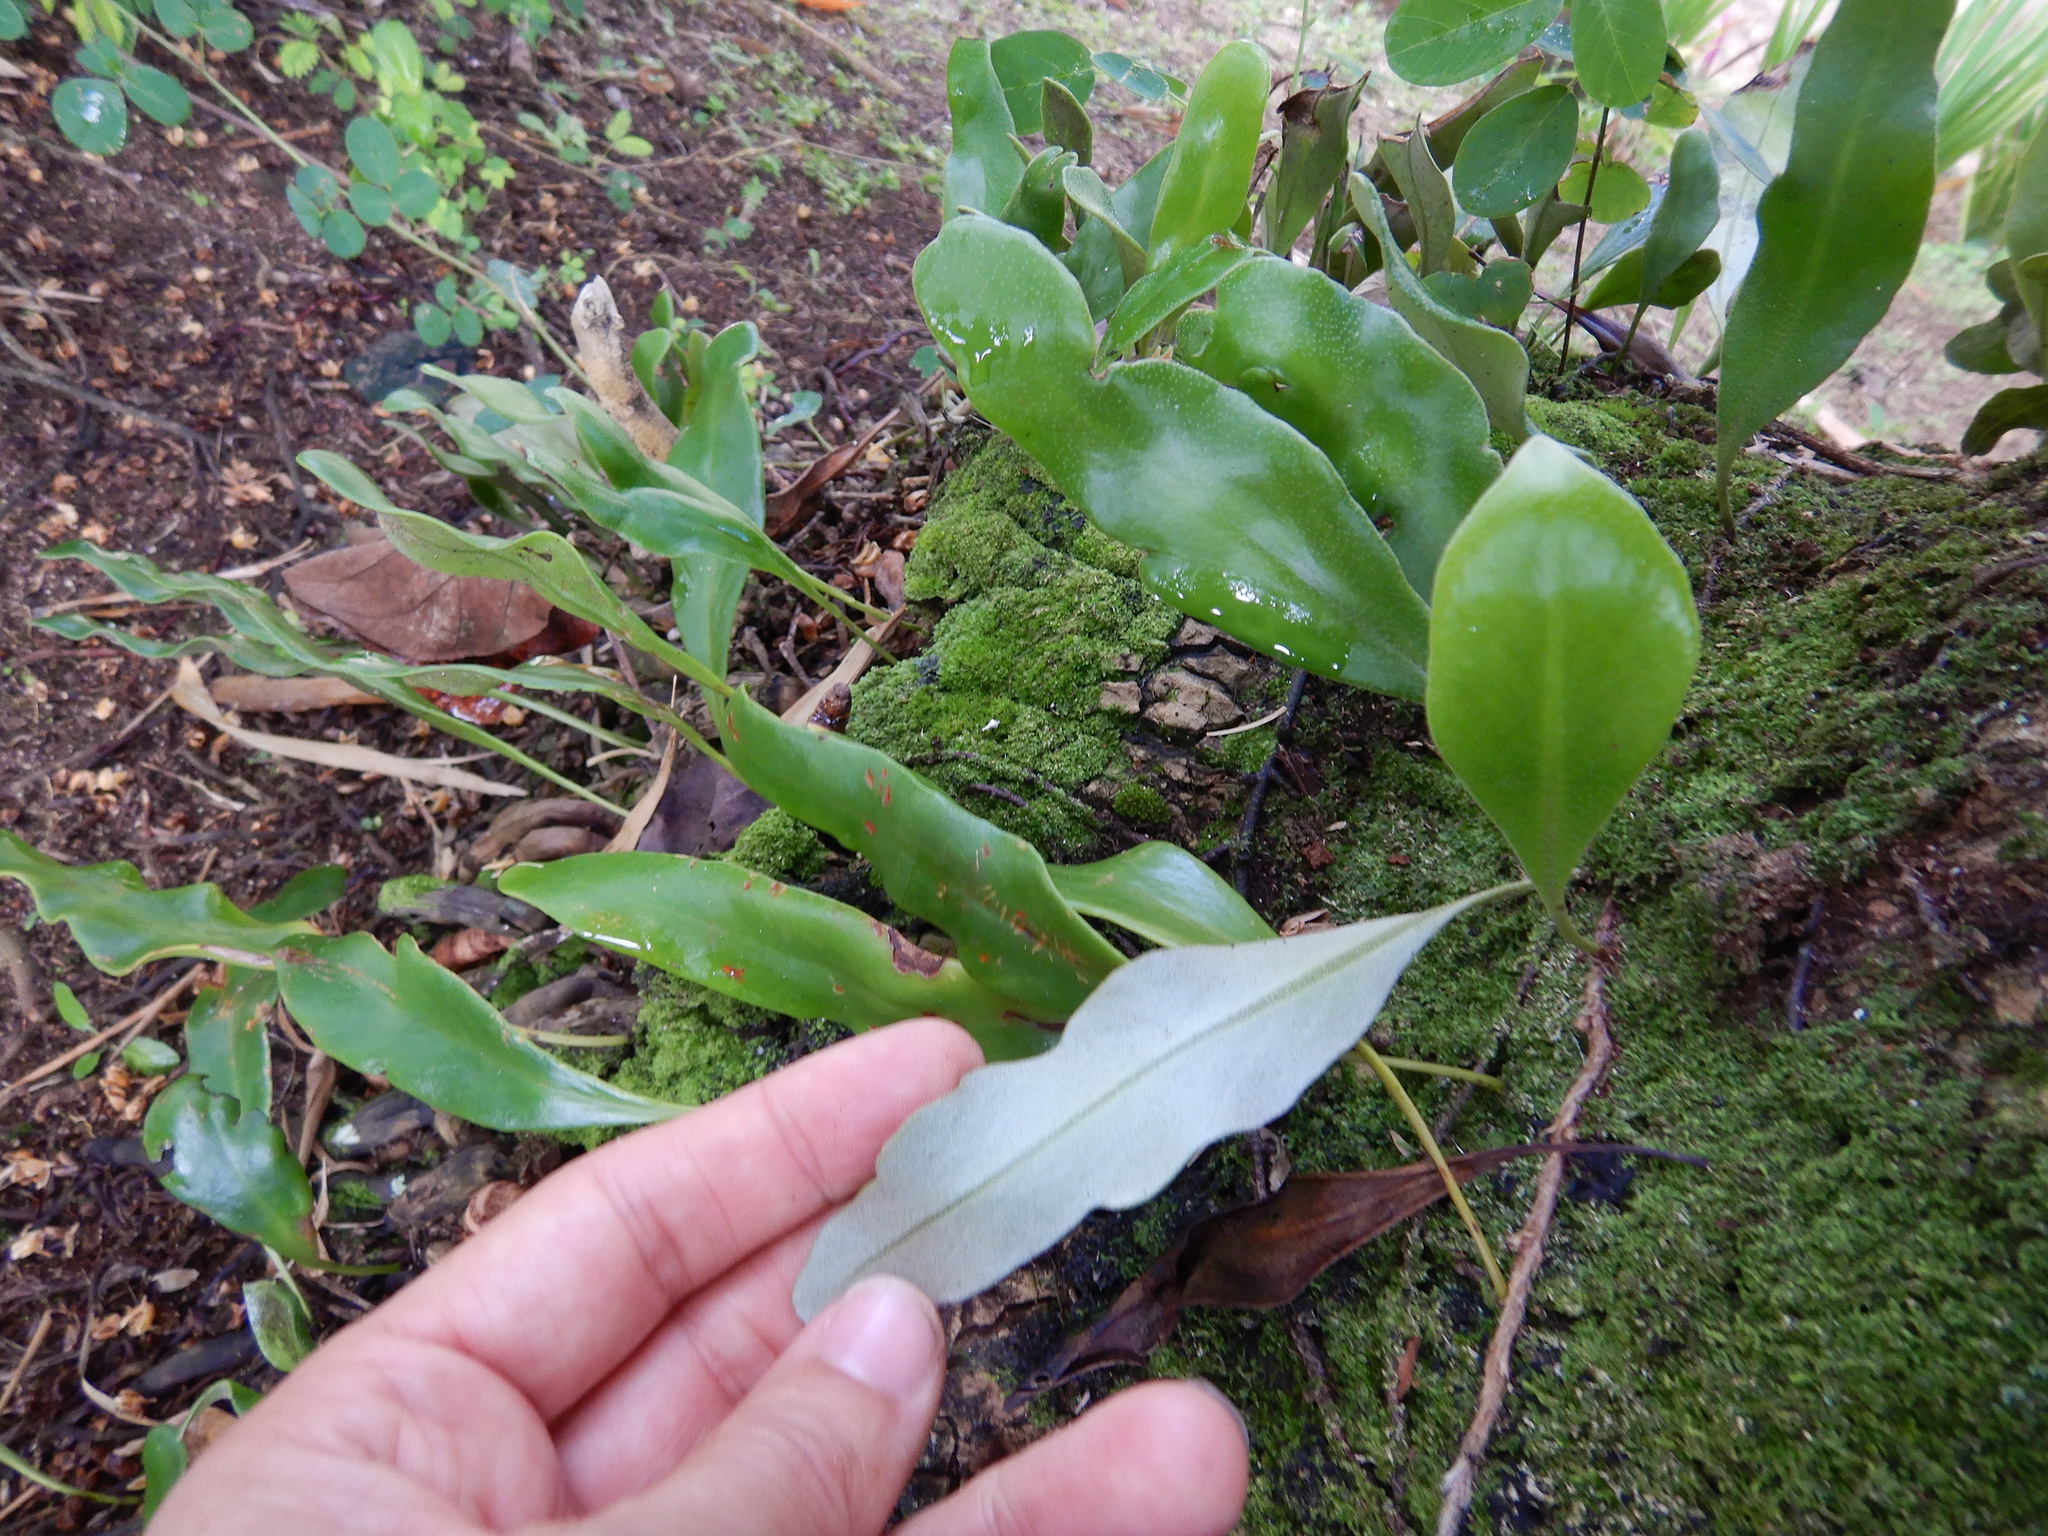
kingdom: Plantae
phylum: Tracheophyta
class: Polypodiopsida
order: Polypodiales
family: Polypodiaceae
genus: Pyrrosia
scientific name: Pyrrosia serpens
